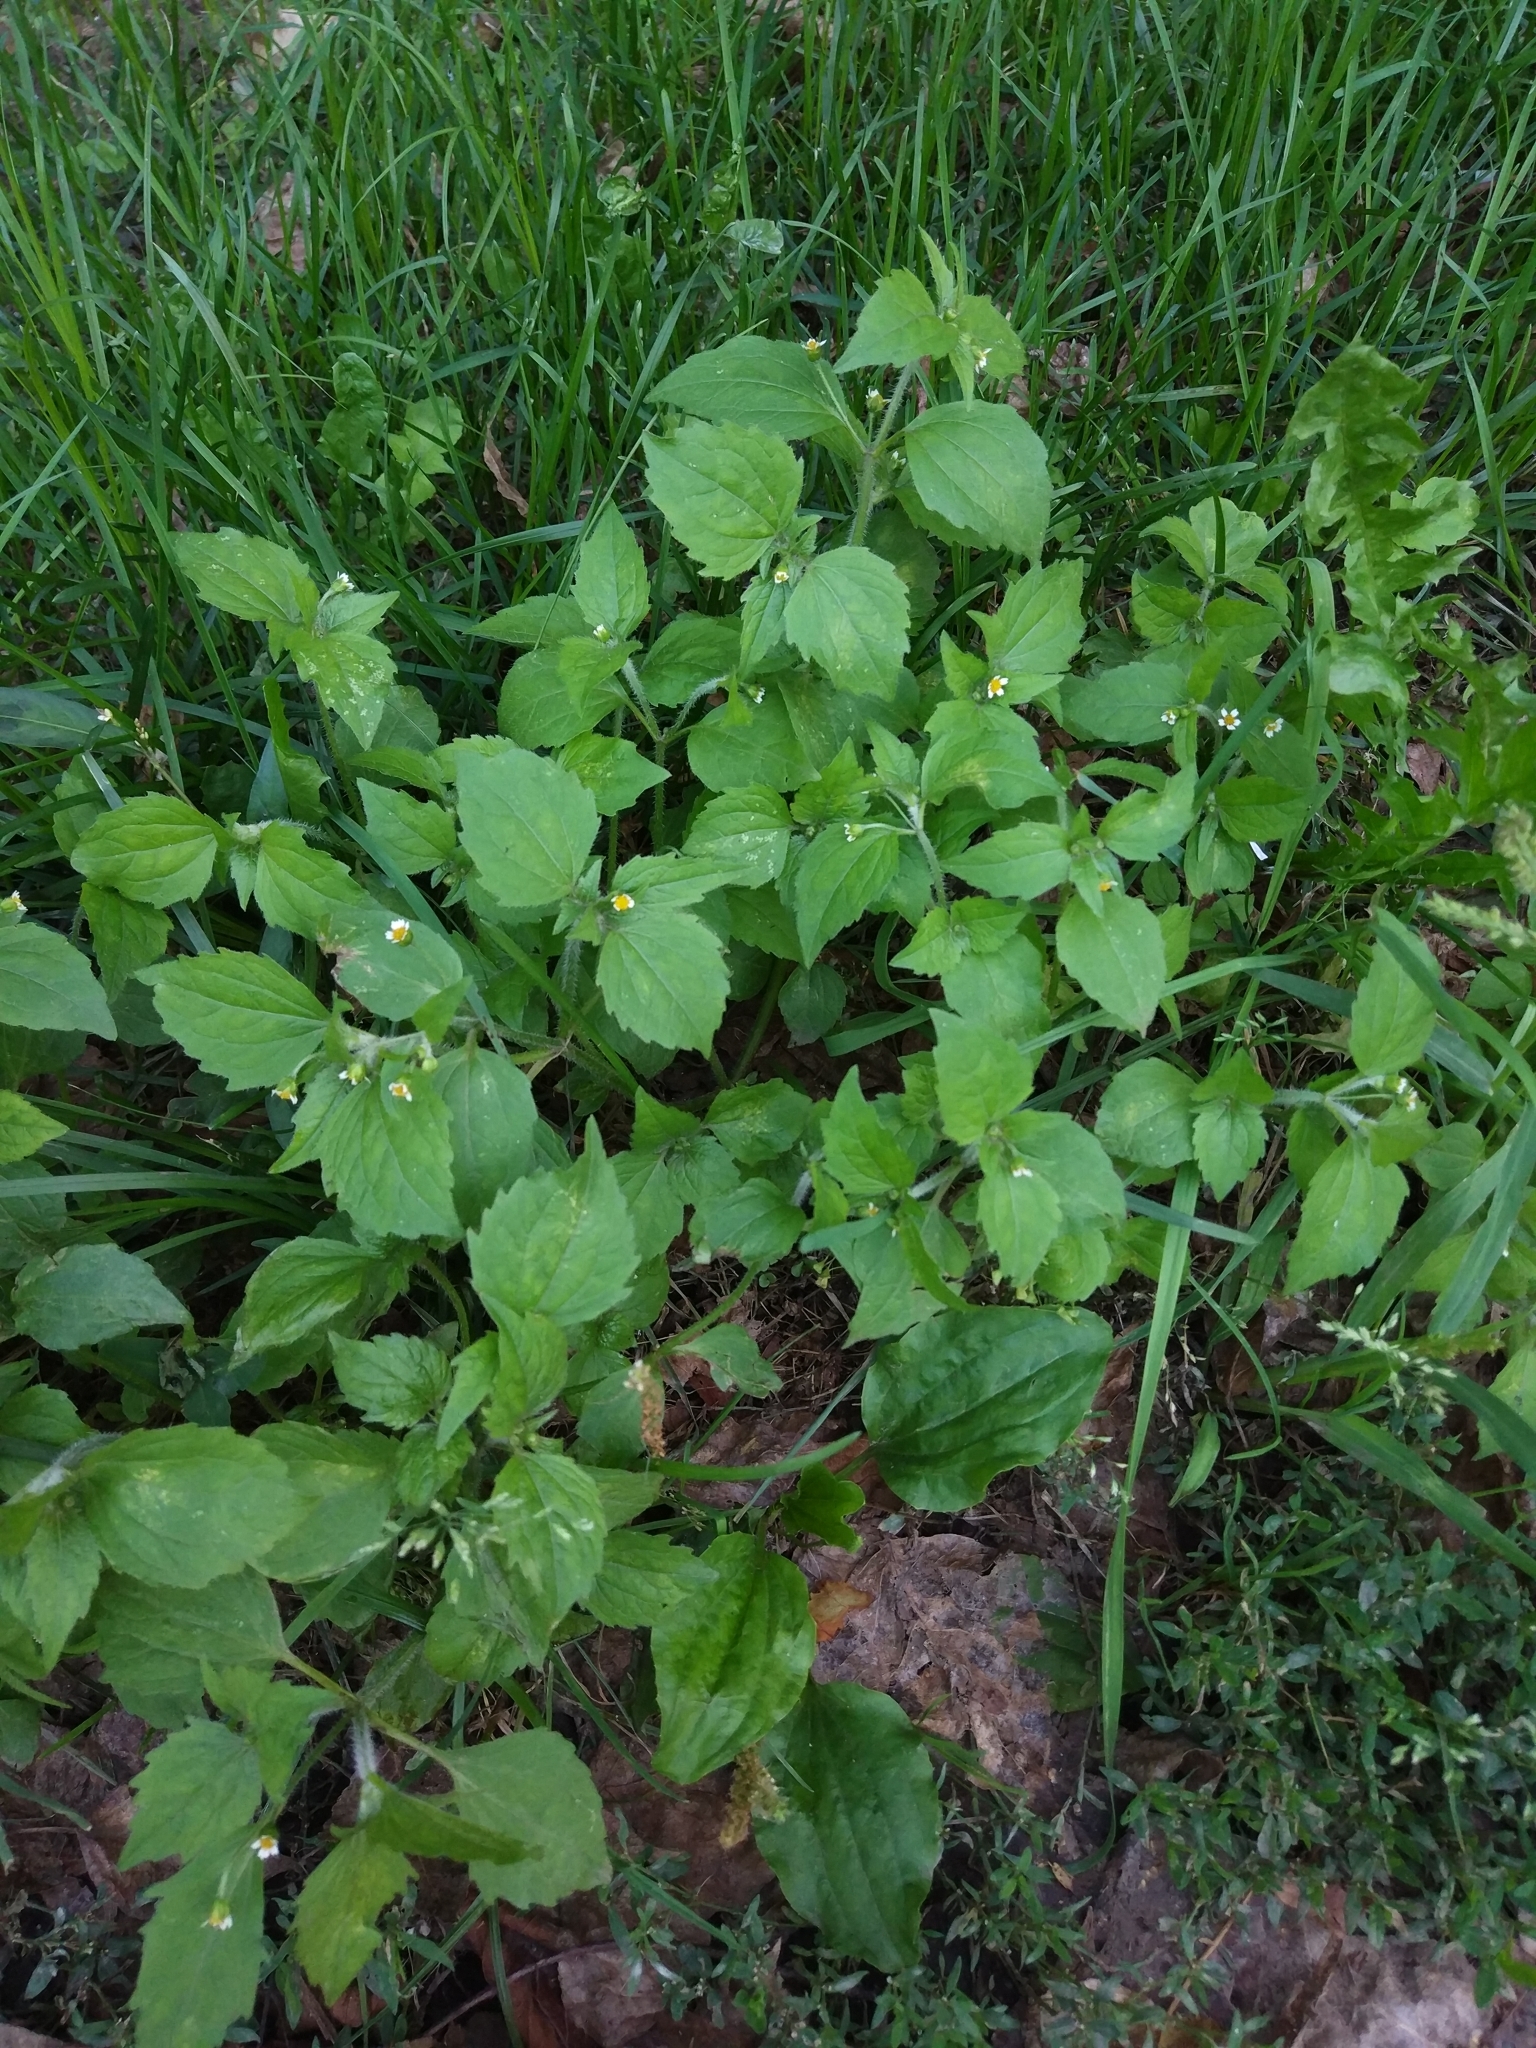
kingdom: Plantae
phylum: Tracheophyta
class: Magnoliopsida
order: Asterales
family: Asteraceae
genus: Galinsoga
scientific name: Galinsoga quadriradiata
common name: Shaggy soldier
